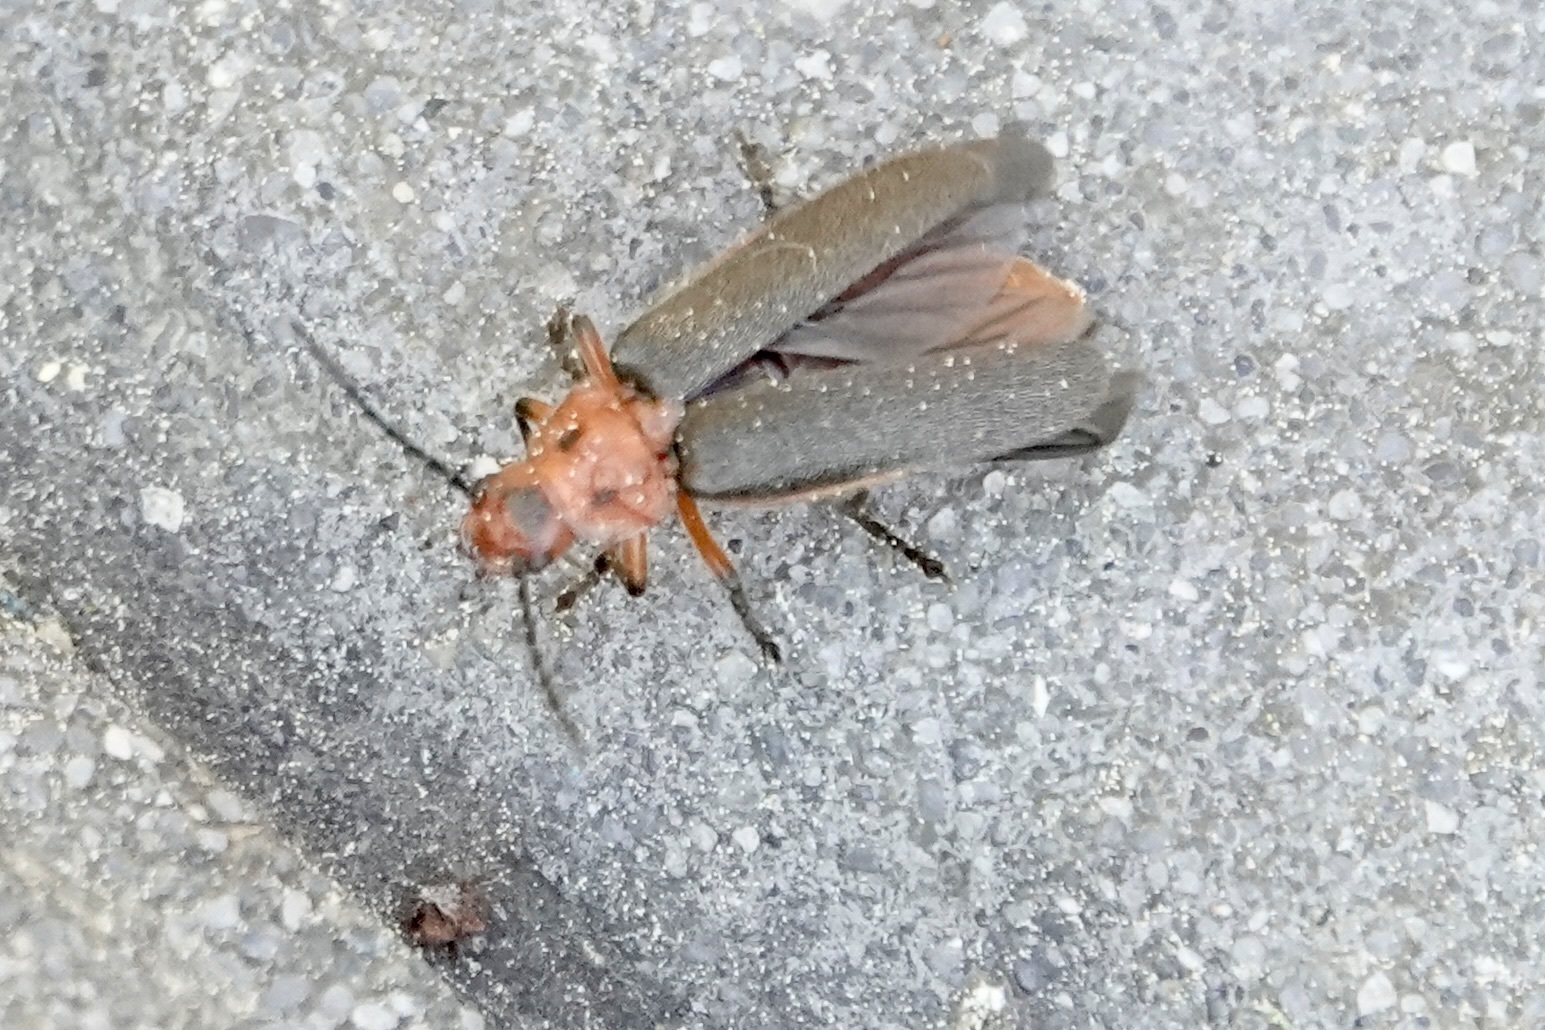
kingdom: Animalia
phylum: Arthropoda
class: Insecta
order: Coleoptera
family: Cantharidae
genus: Atalantycha
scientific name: Atalantycha bilineata
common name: Two-lined leatherwing
